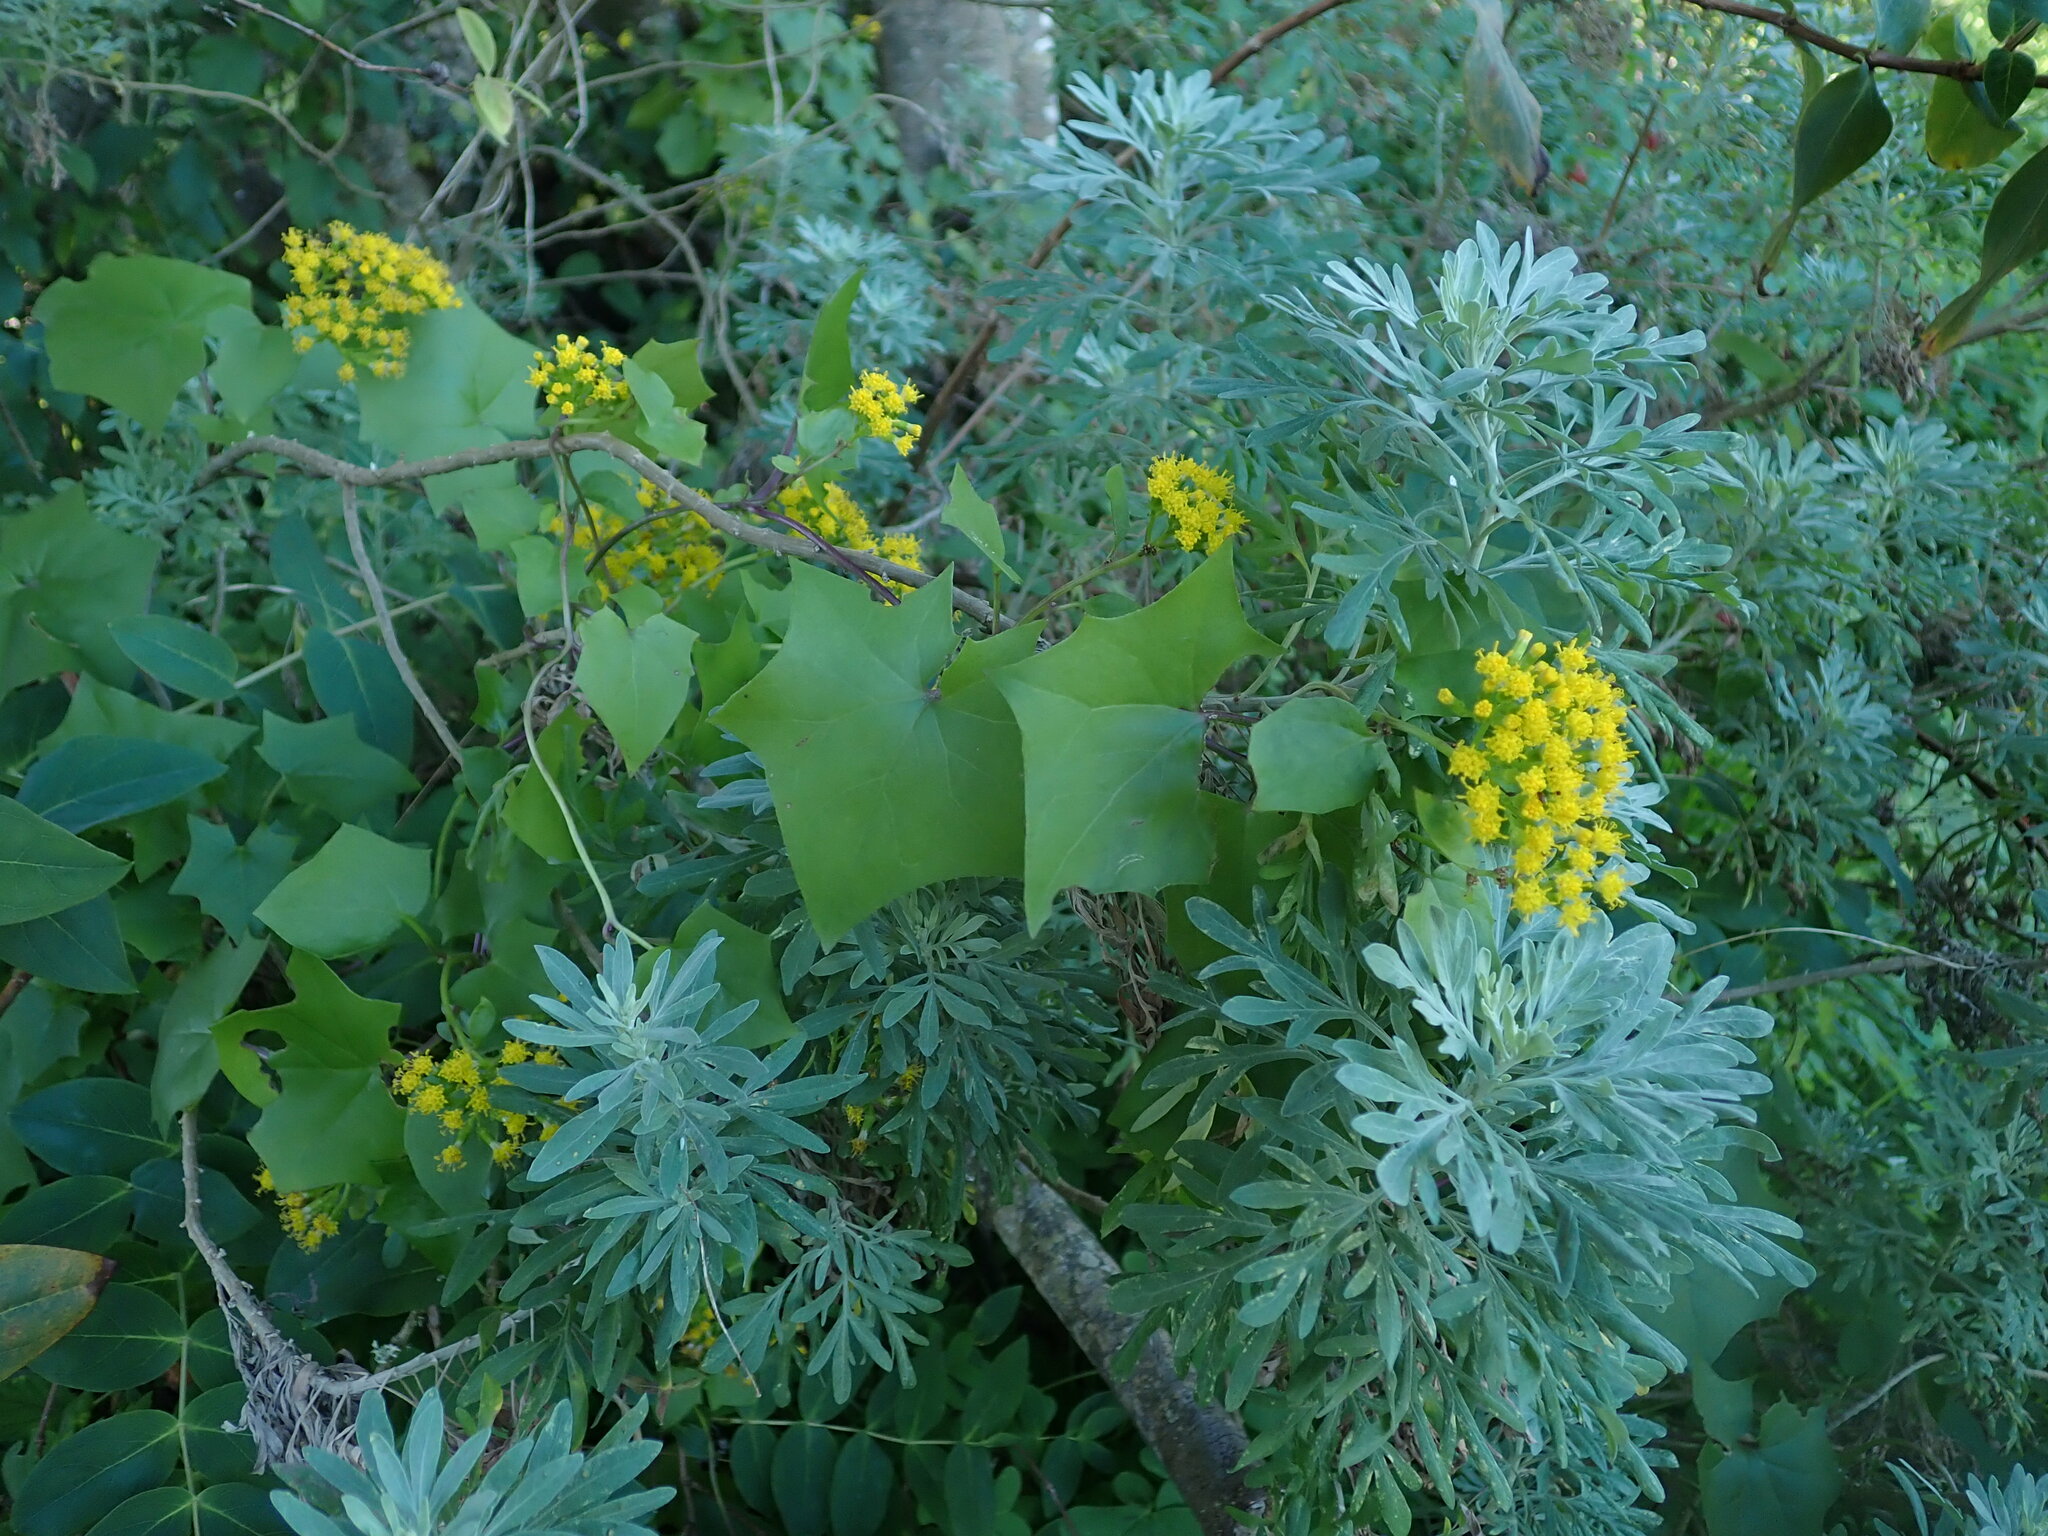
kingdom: Plantae
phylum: Tracheophyta
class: Magnoliopsida
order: Asterales
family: Asteraceae
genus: Delairea
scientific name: Delairea odorata
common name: Cape-ivy
